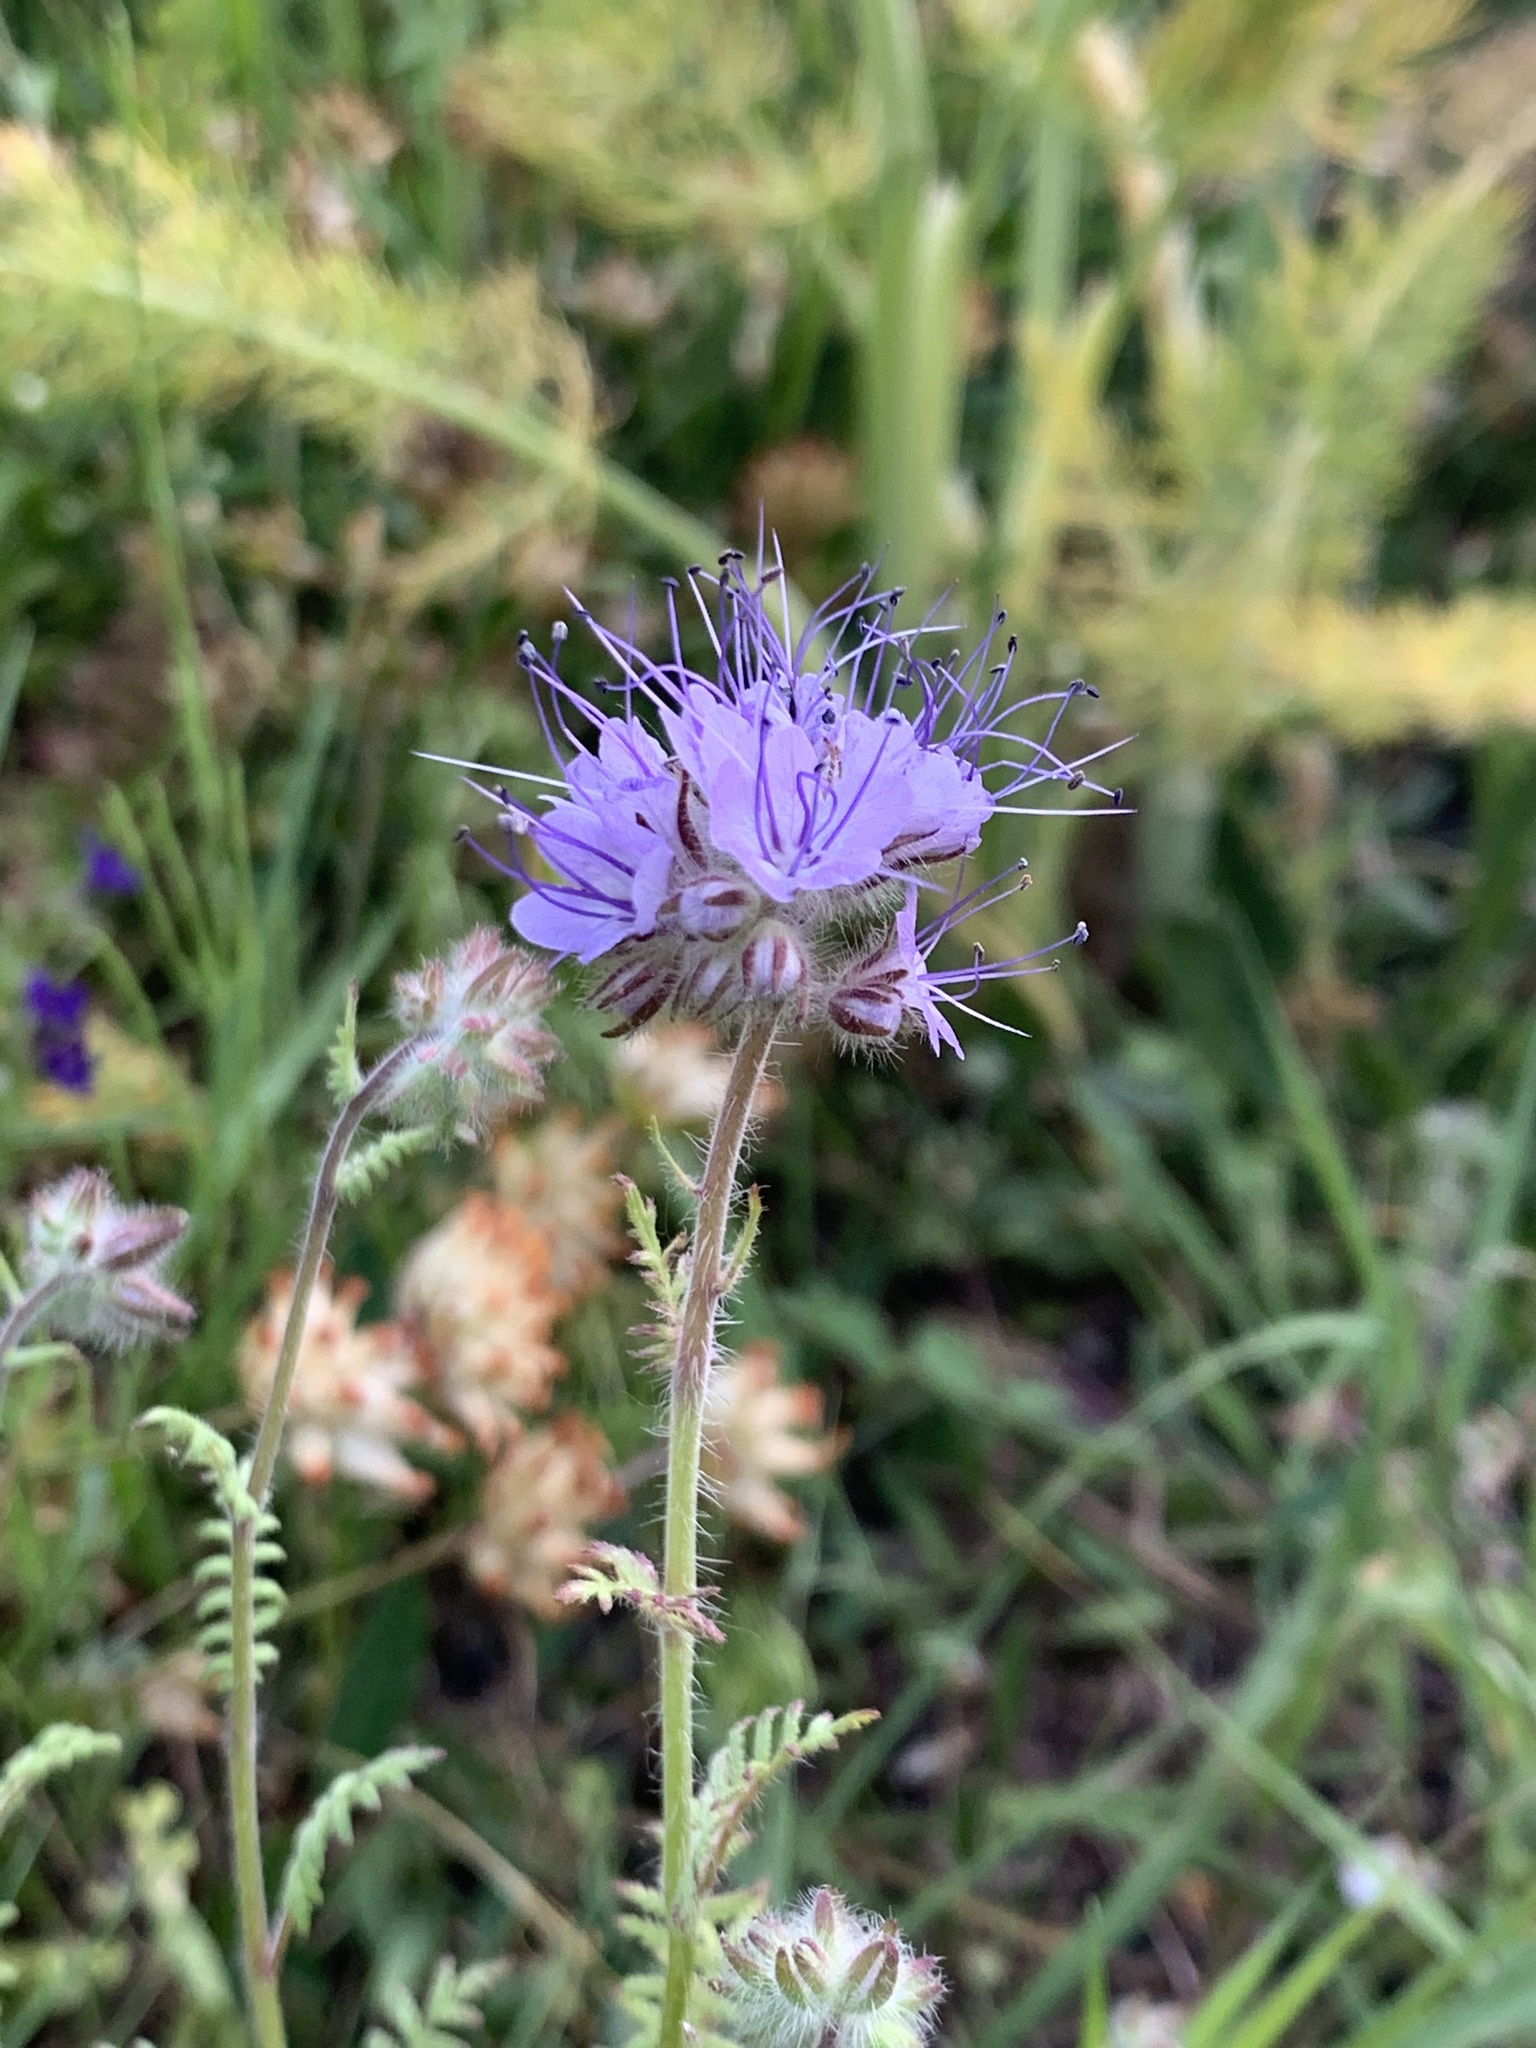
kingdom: Plantae
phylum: Tracheophyta
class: Magnoliopsida
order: Boraginales
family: Hydrophyllaceae
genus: Phacelia
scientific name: Phacelia tanacetifolia
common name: Phacelia
